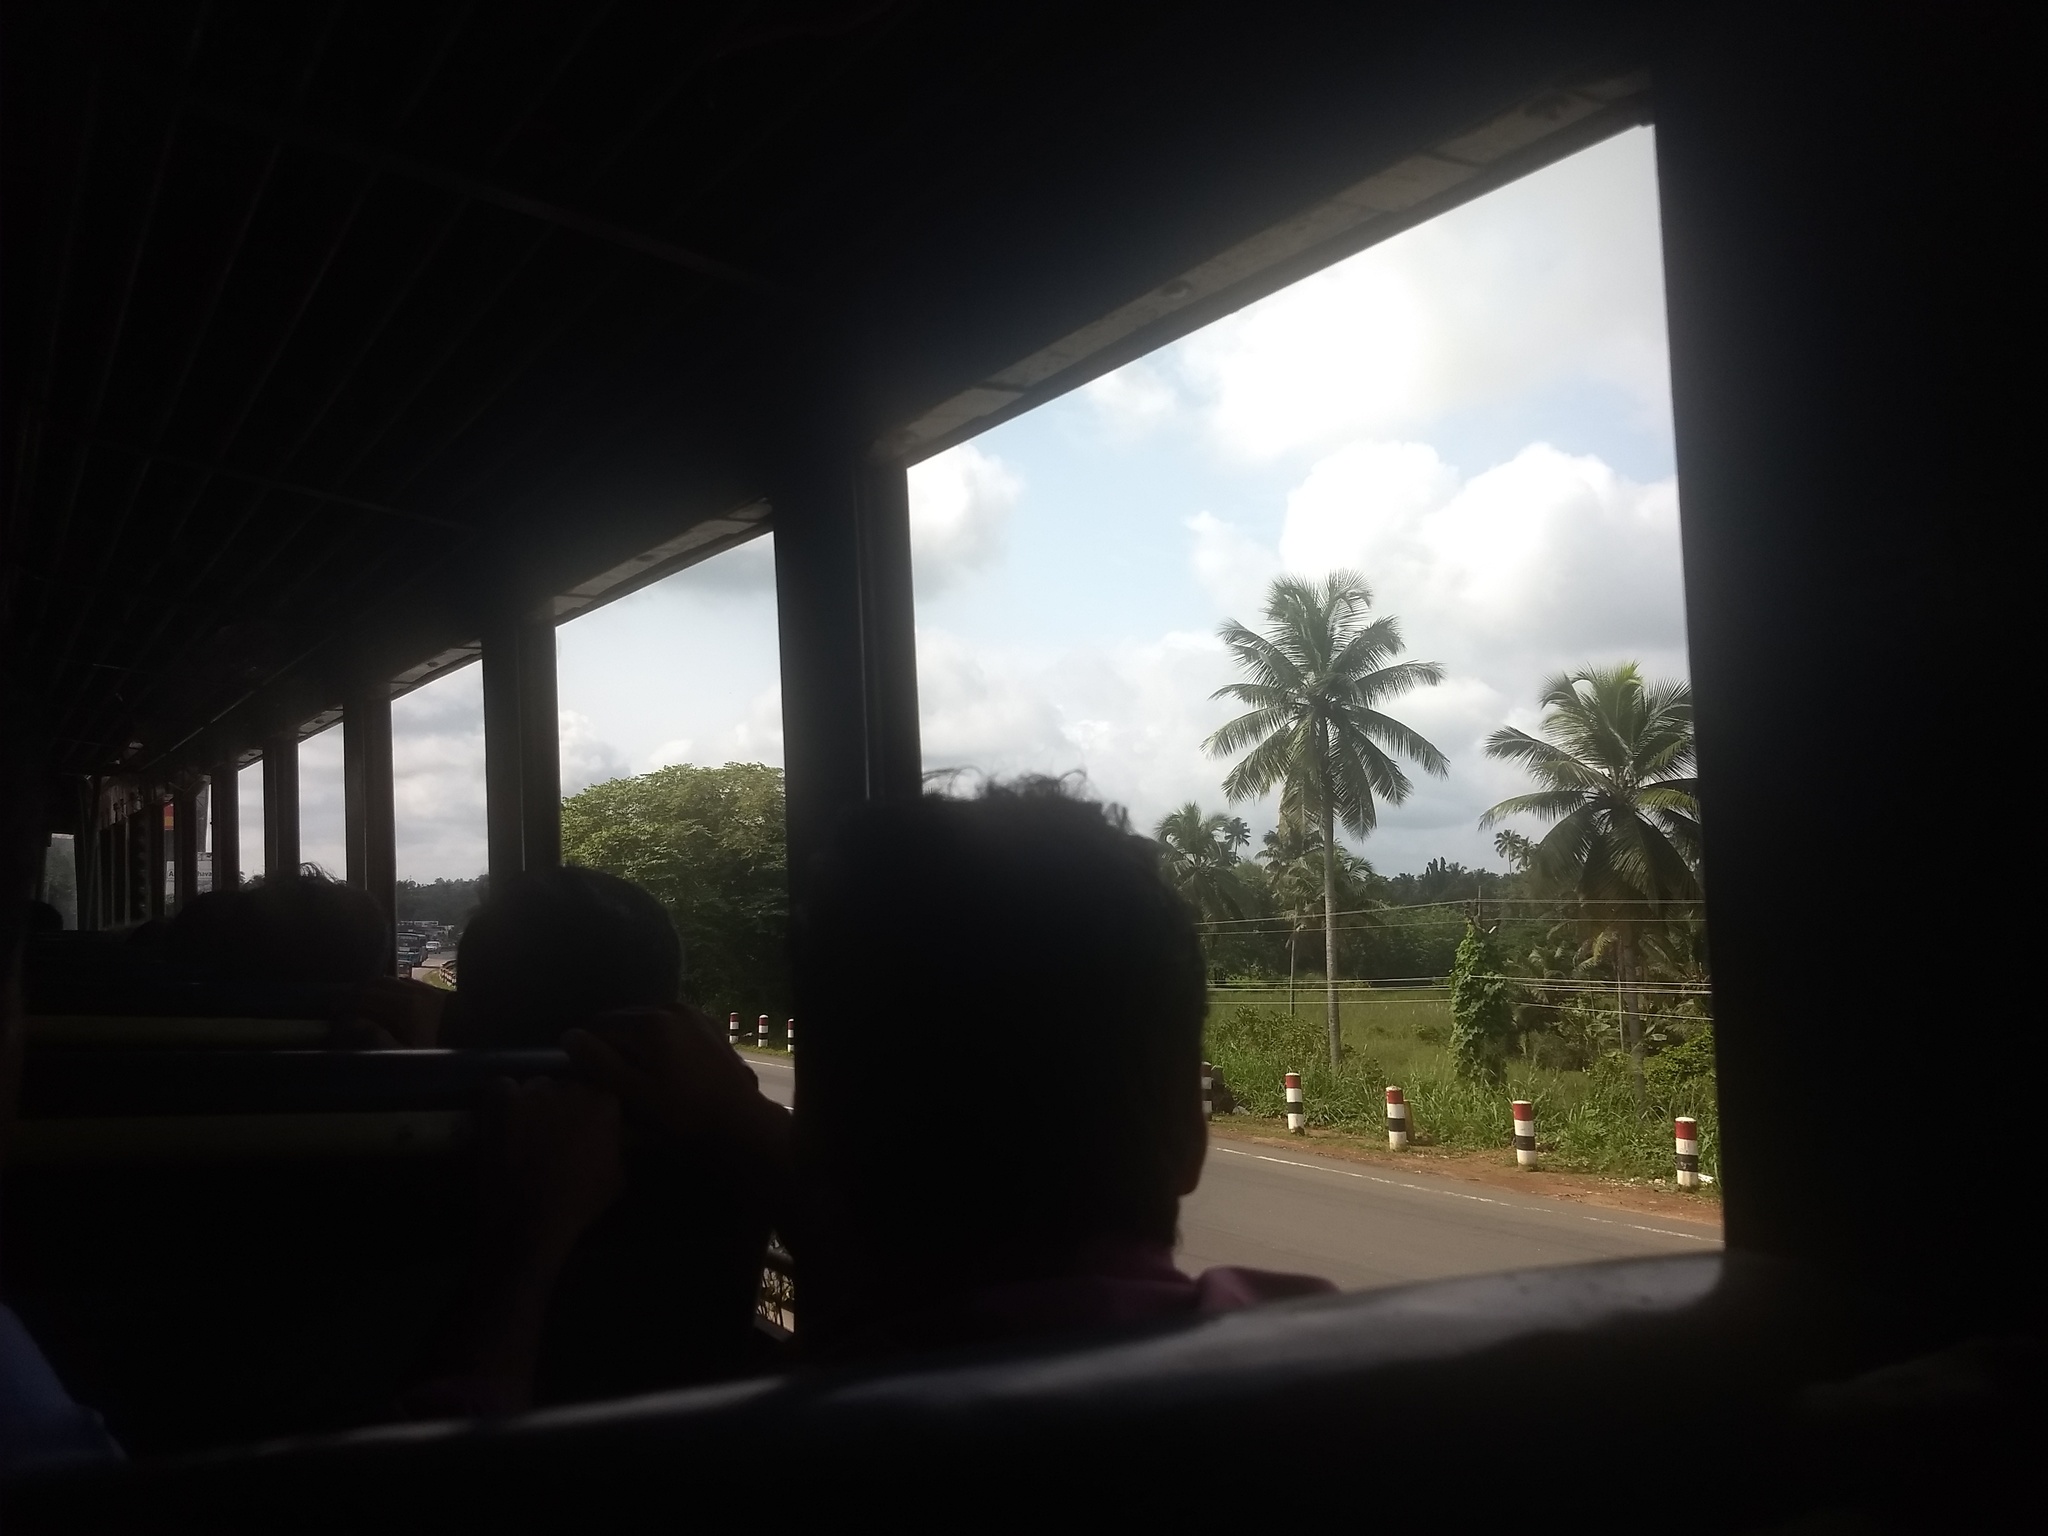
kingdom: Plantae
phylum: Tracheophyta
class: Liliopsida
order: Arecales
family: Arecaceae
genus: Cocos
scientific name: Cocos nucifera
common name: Coconut palm
